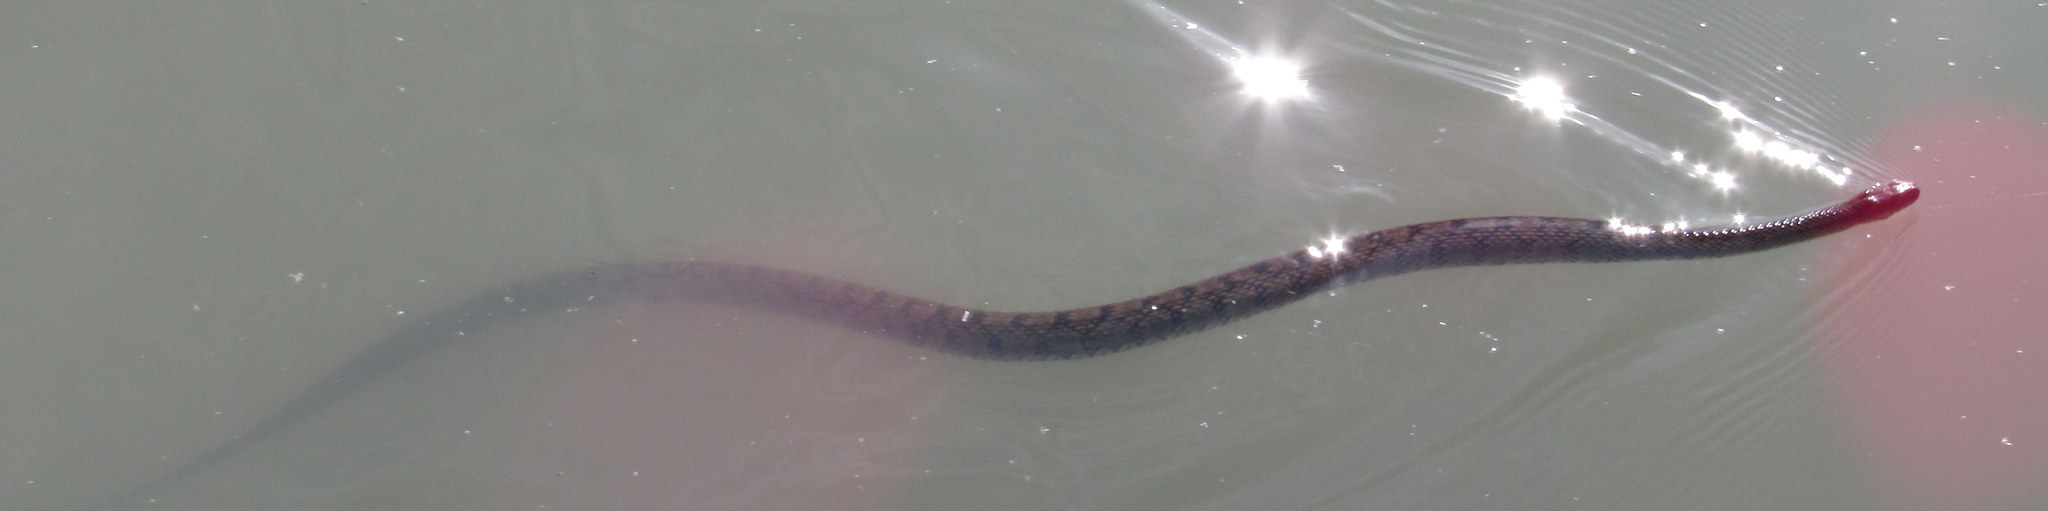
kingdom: Animalia
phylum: Chordata
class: Squamata
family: Colubridae
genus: Nerodia
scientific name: Nerodia rhombifer
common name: Diamondback water snake
